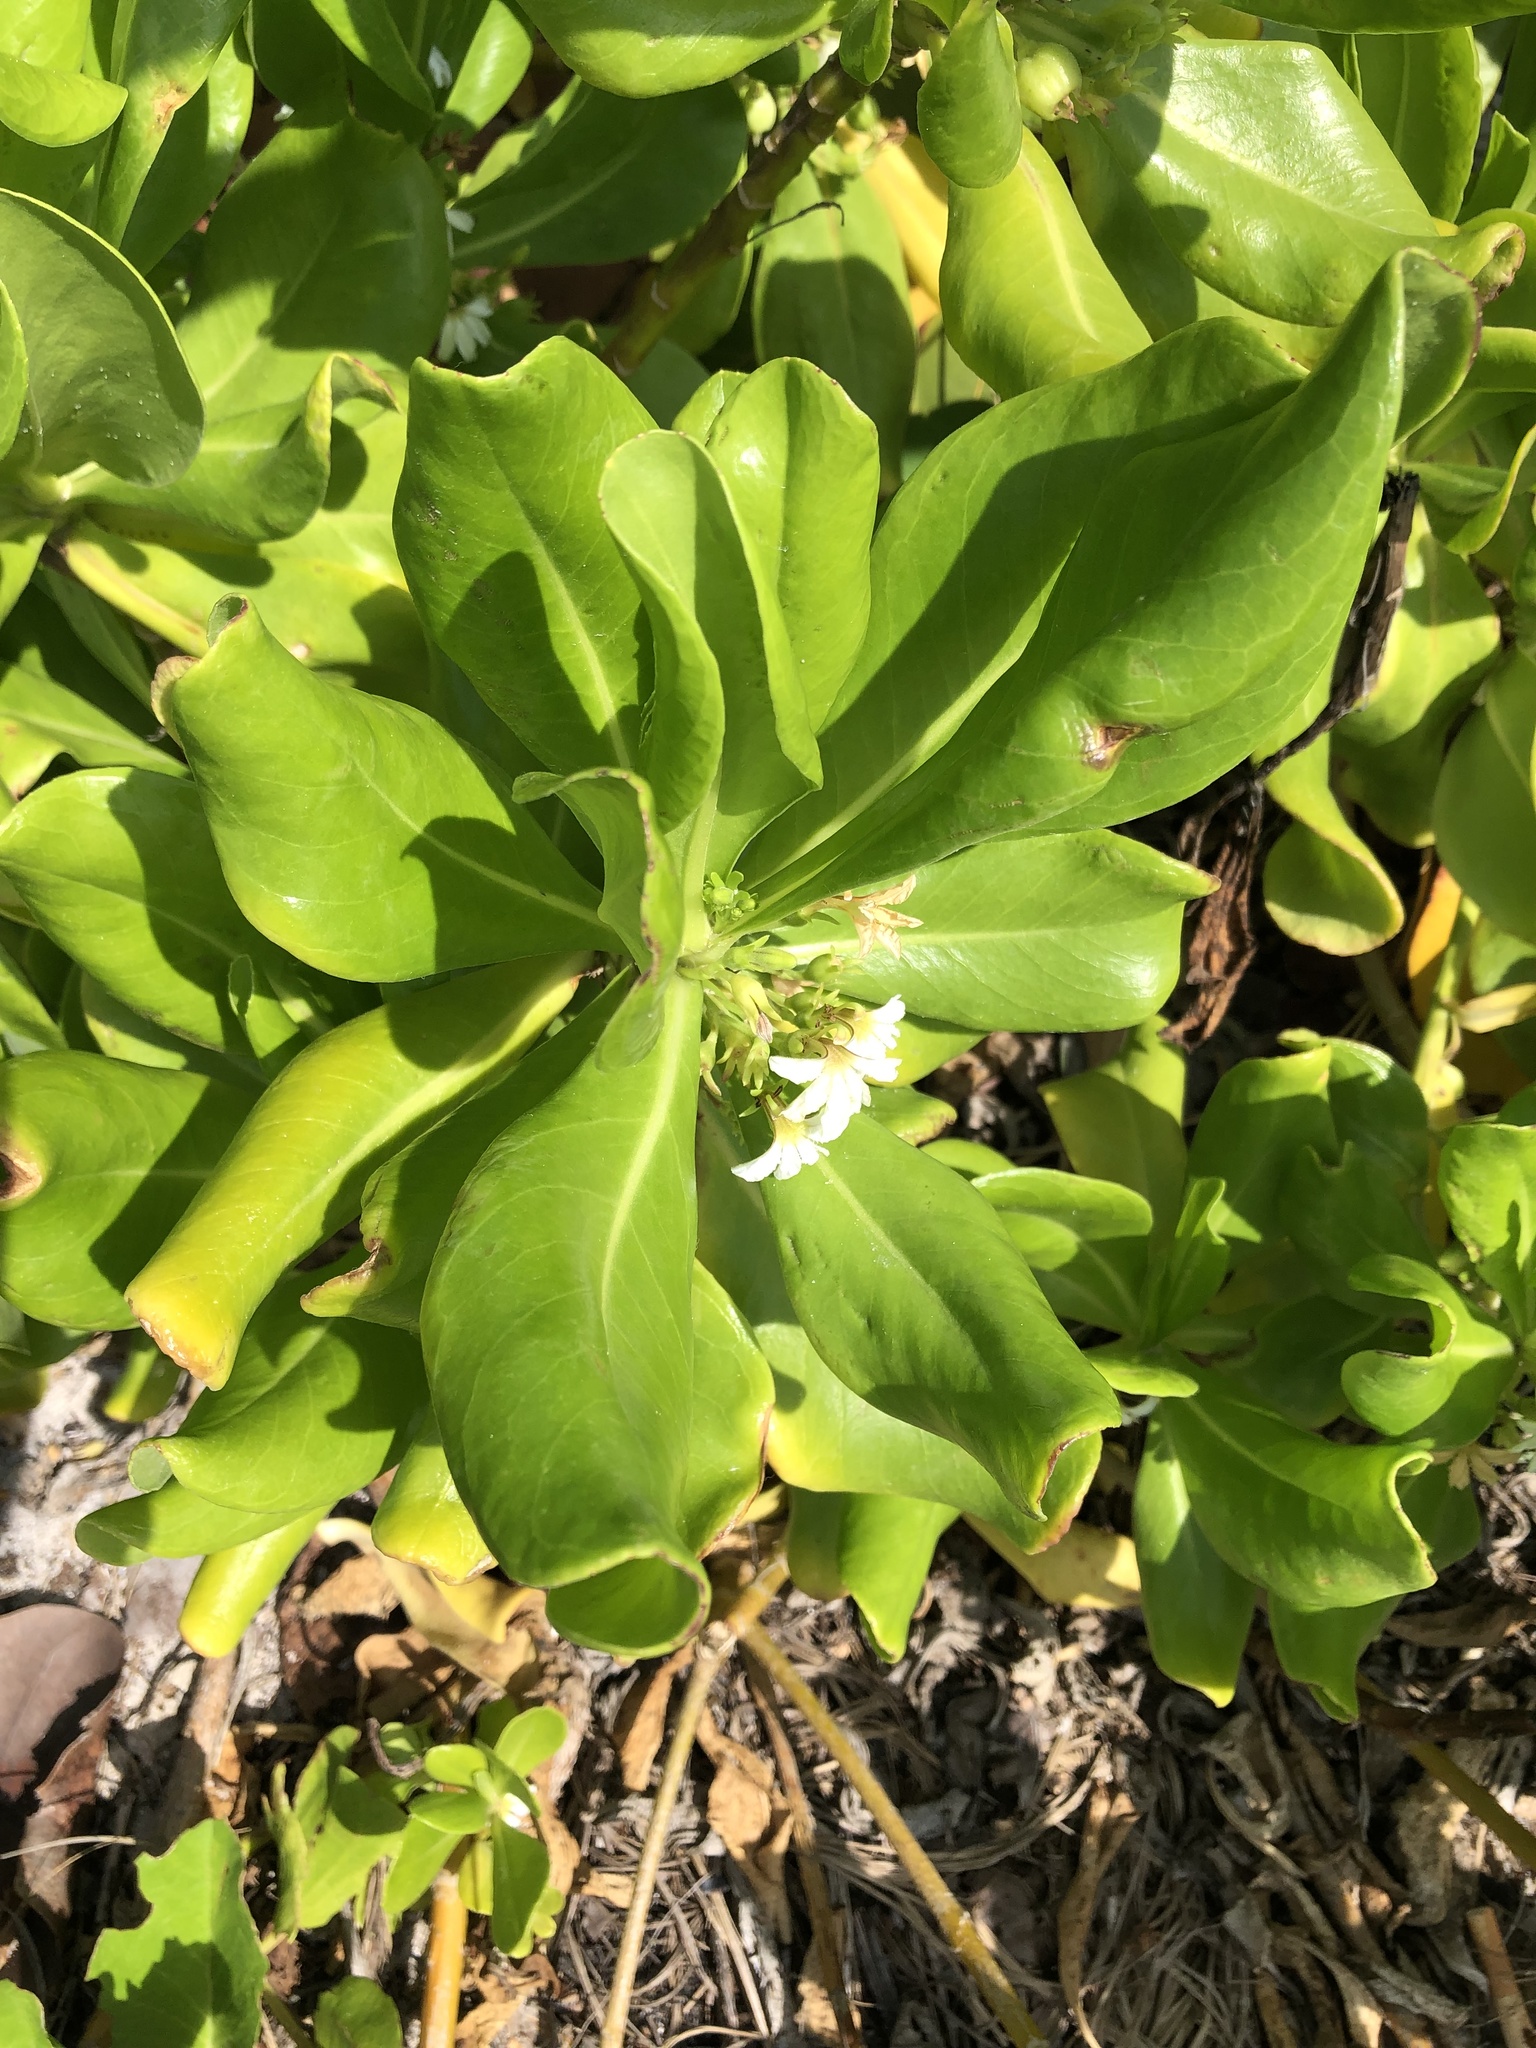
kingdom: Plantae
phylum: Tracheophyta
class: Magnoliopsida
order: Asterales
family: Goodeniaceae
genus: Scaevola
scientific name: Scaevola taccada
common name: Sea lettucetree
